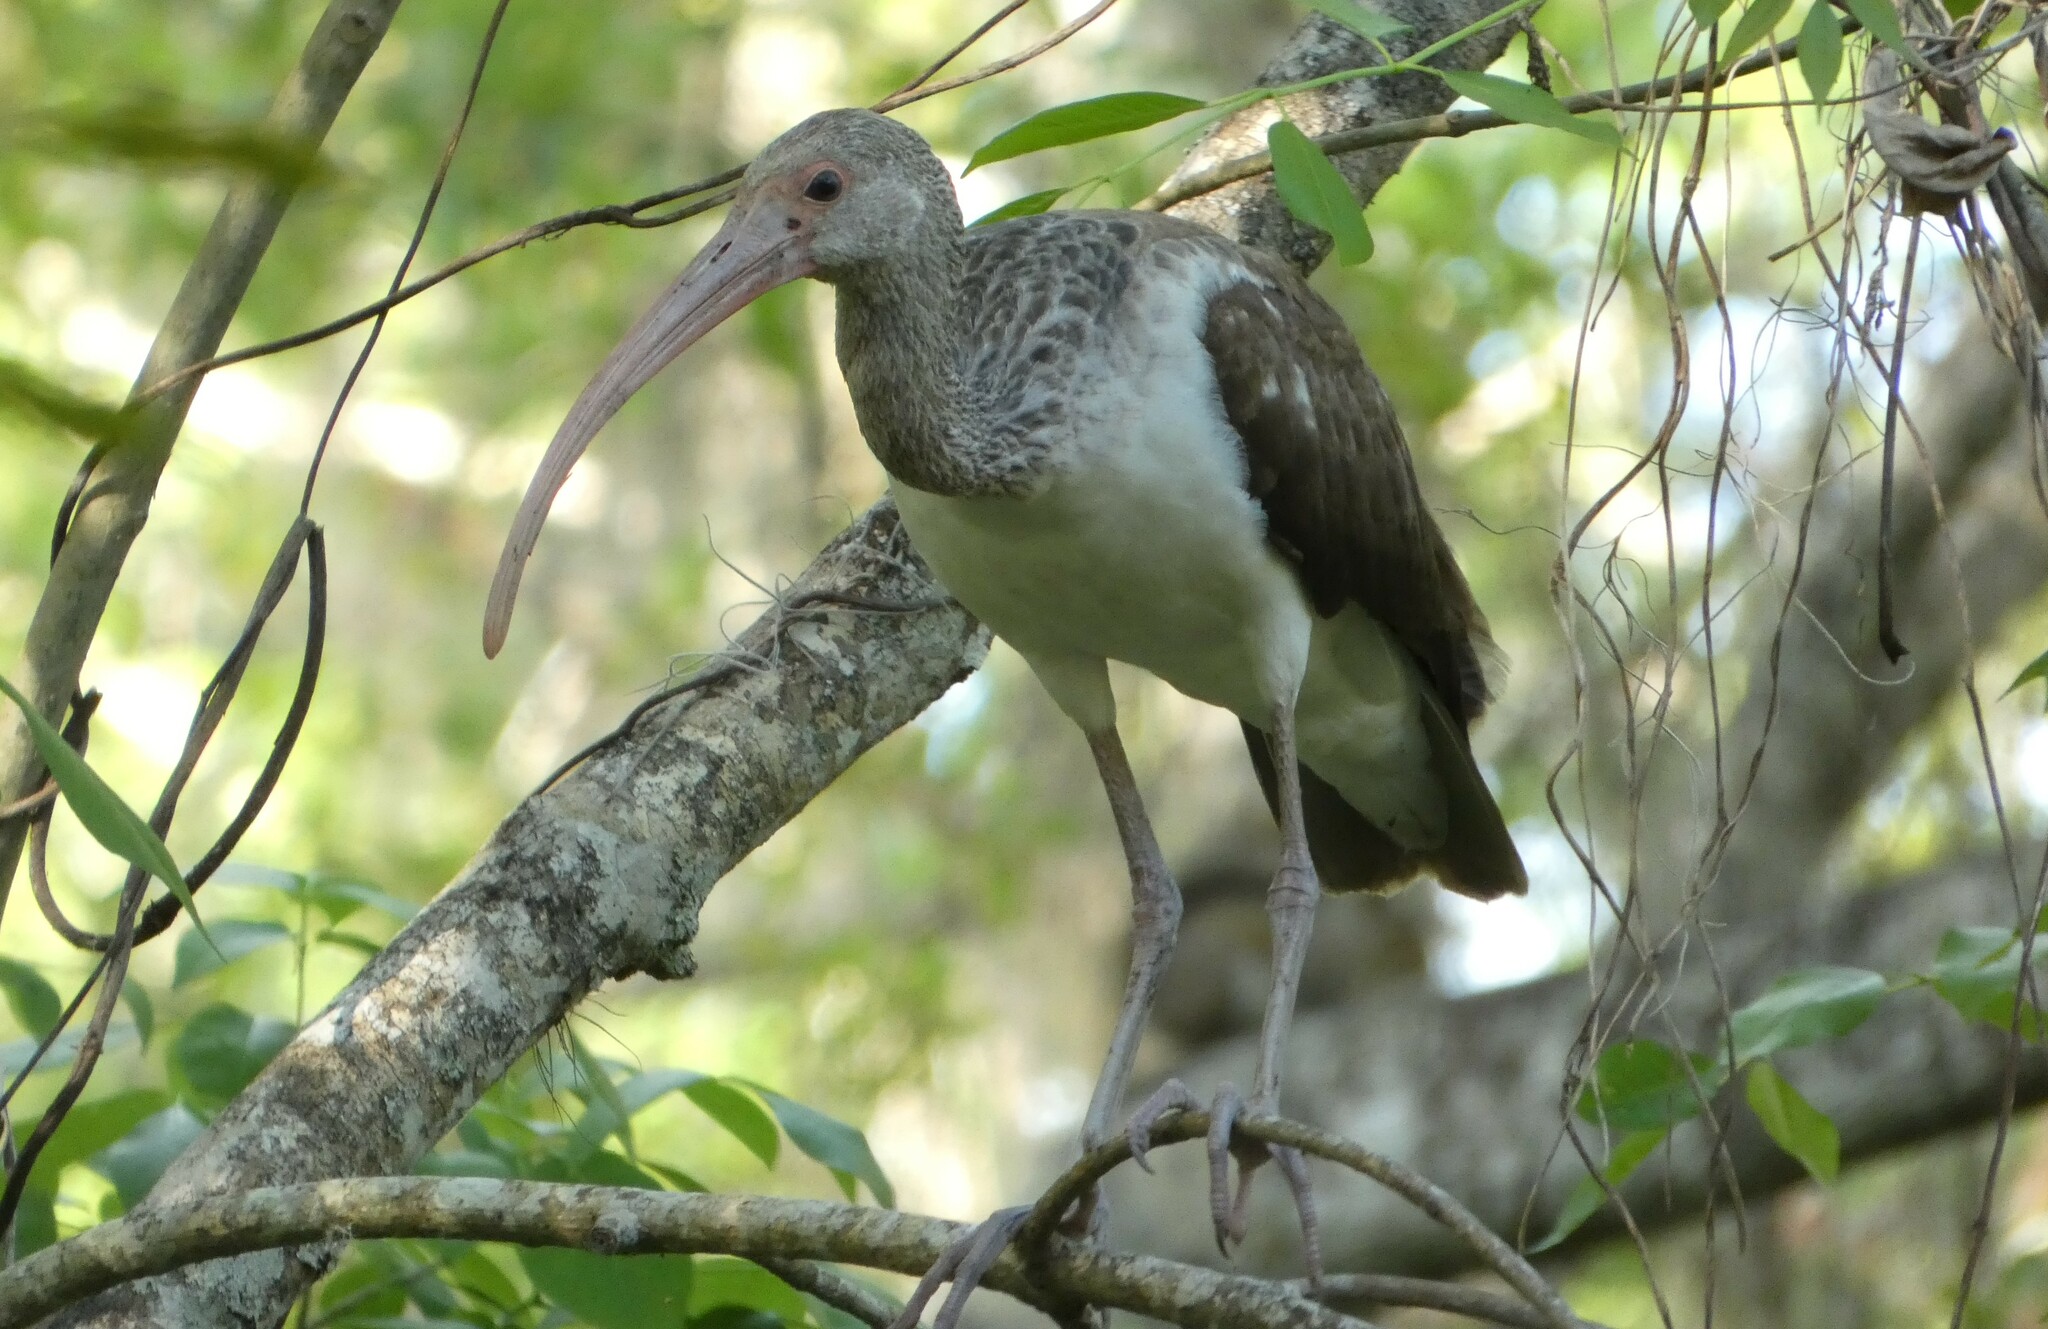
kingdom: Animalia
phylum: Chordata
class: Aves
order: Pelecaniformes
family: Threskiornithidae
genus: Eudocimus
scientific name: Eudocimus albus
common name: White ibis
